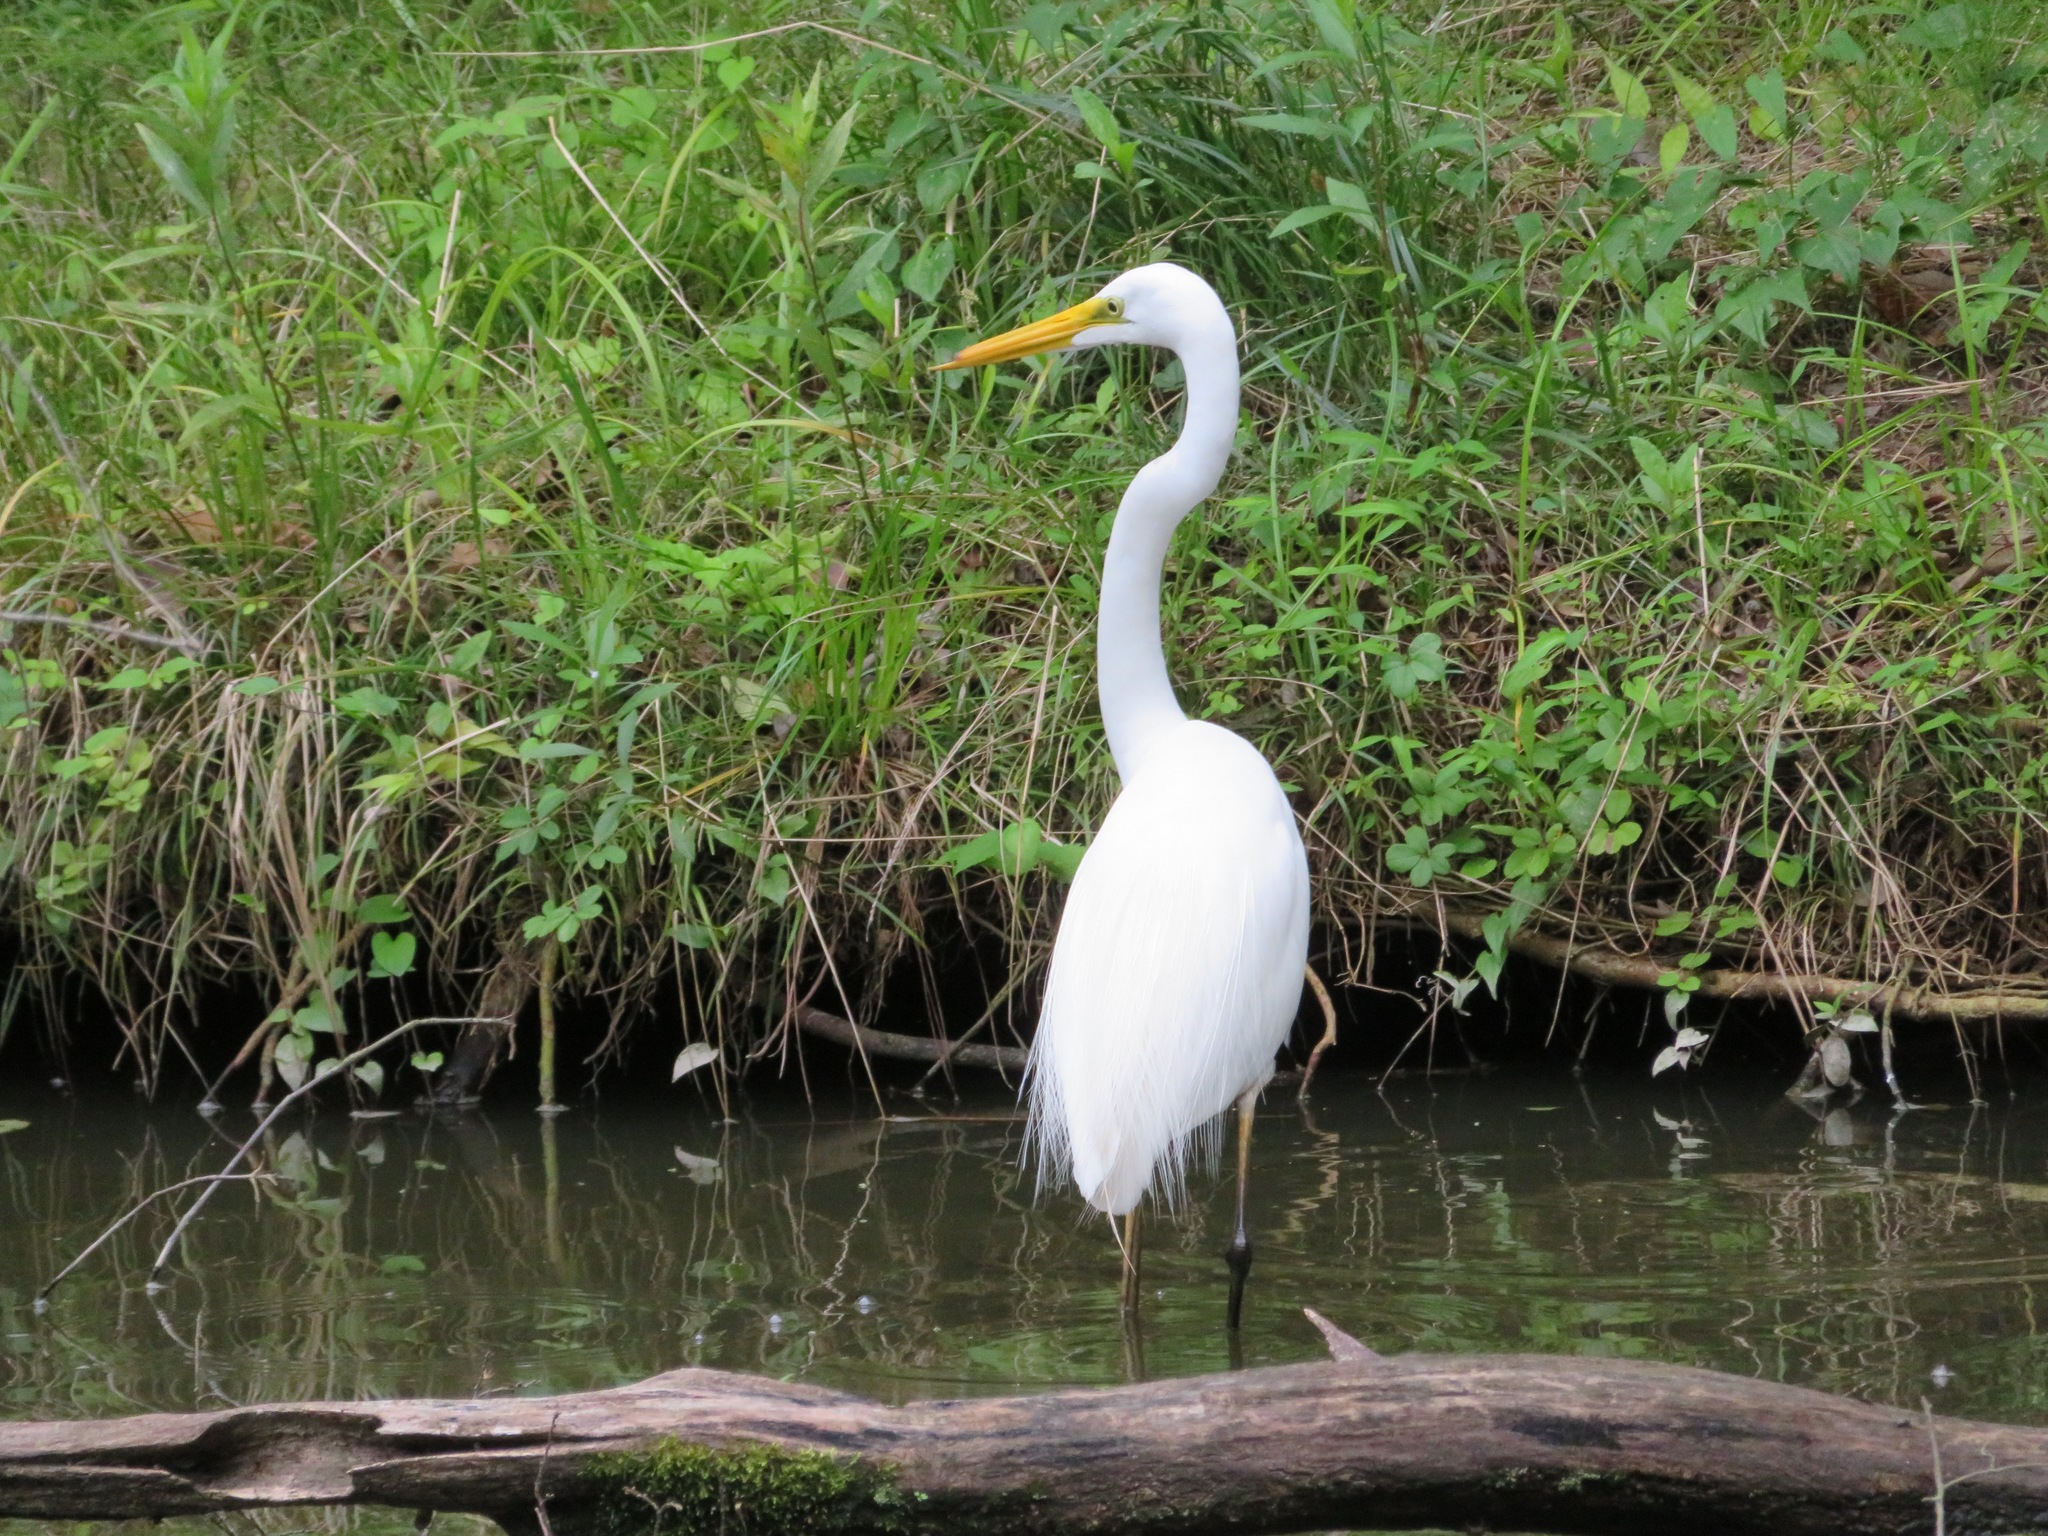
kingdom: Animalia
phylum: Chordata
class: Aves
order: Pelecaniformes
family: Ardeidae
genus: Ardea
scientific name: Ardea alba
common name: Great egret
